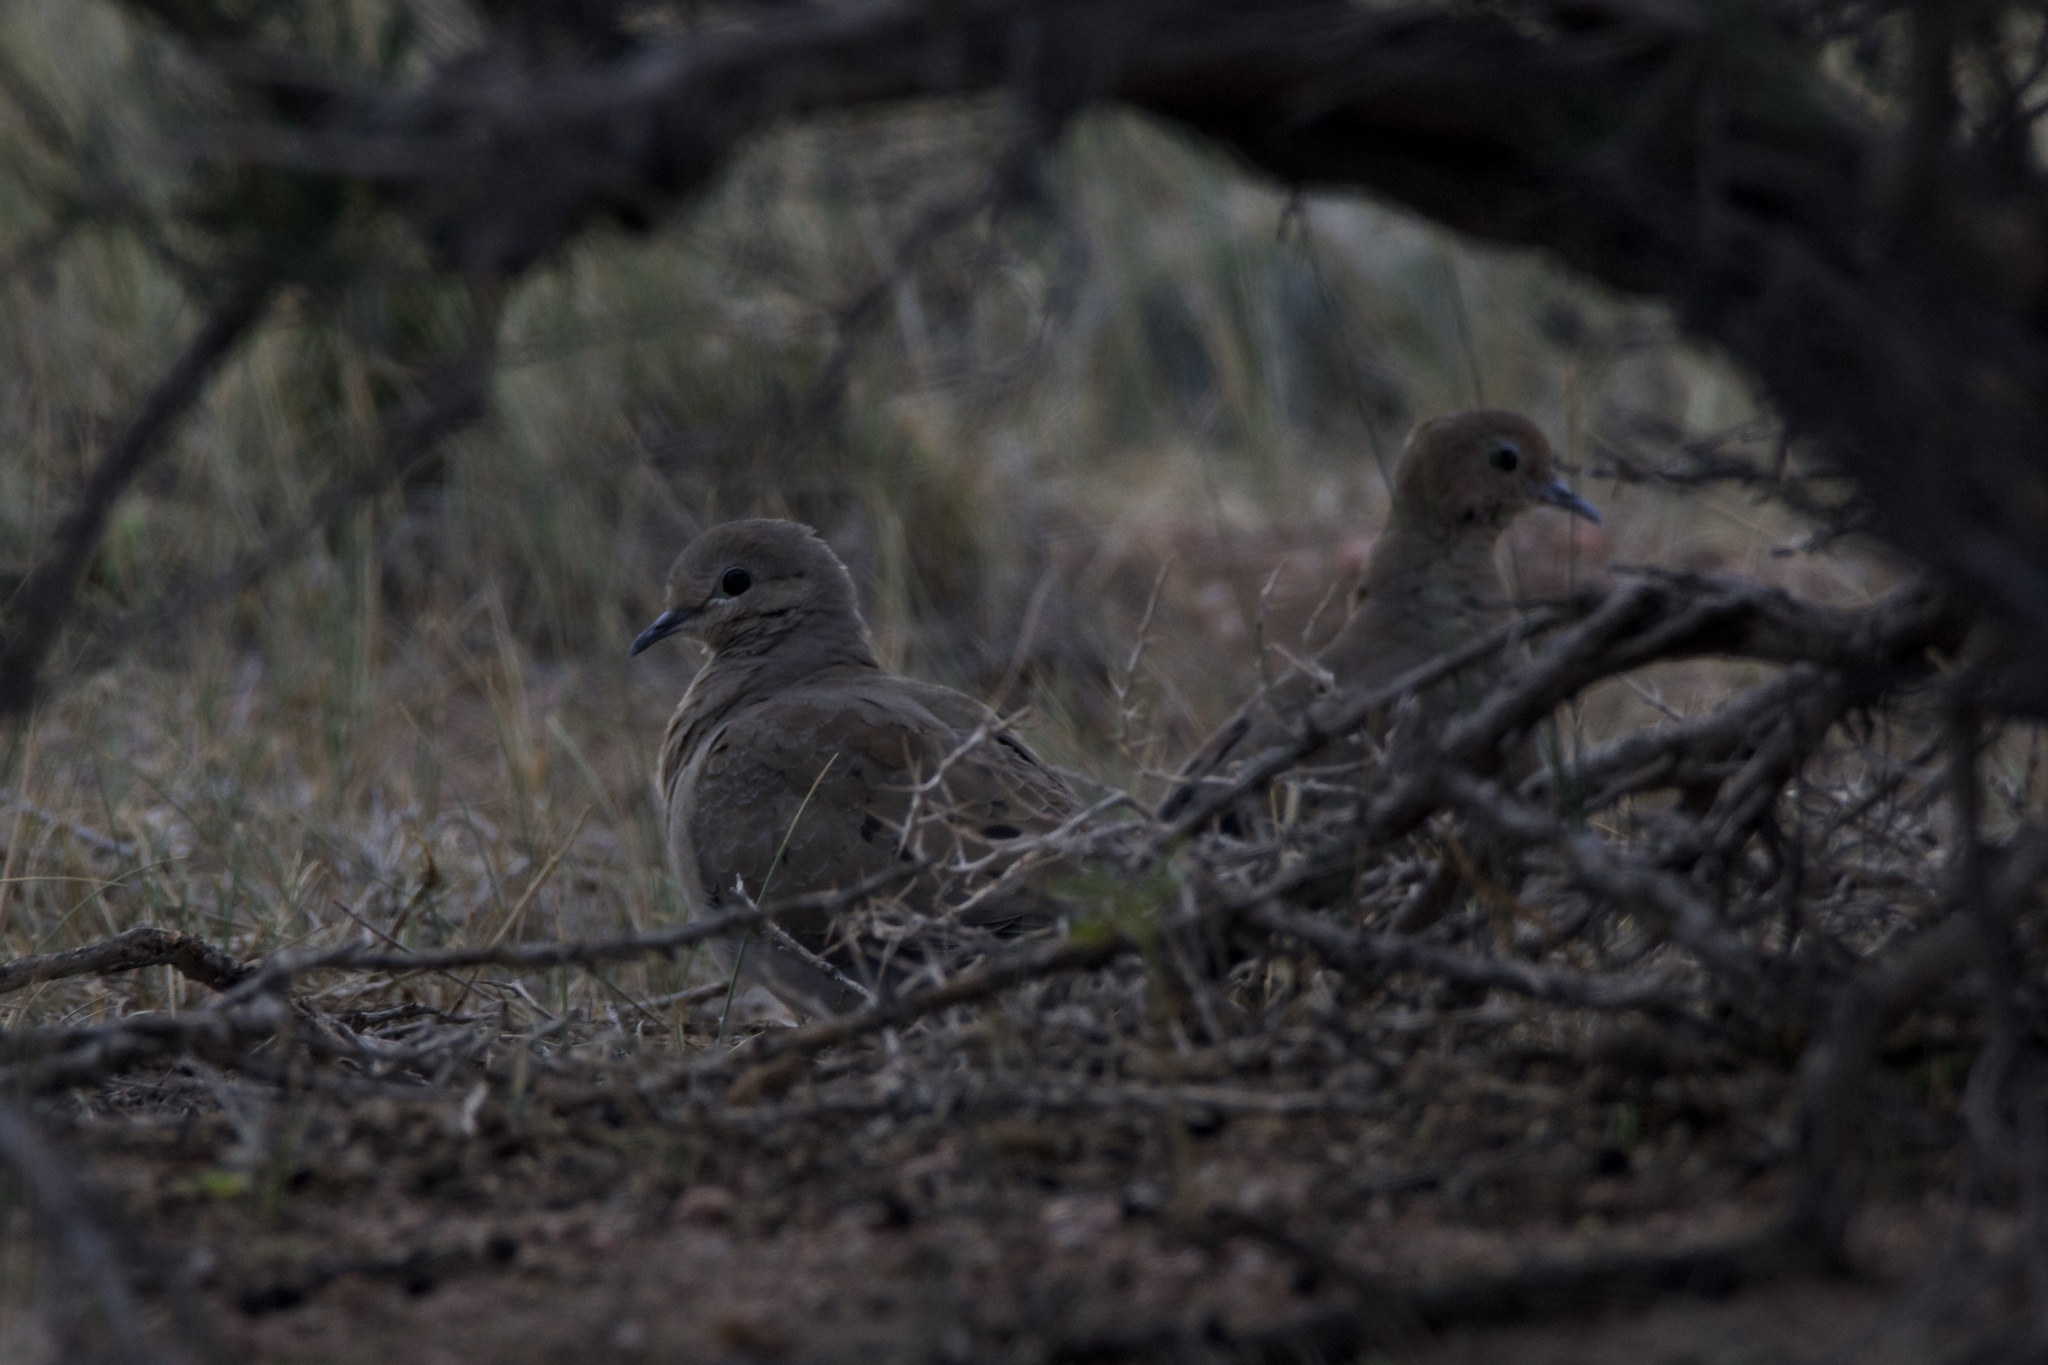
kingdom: Animalia
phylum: Chordata
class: Aves
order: Columbiformes
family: Columbidae
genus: Zenaida
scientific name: Zenaida macroura
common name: Mourning dove
